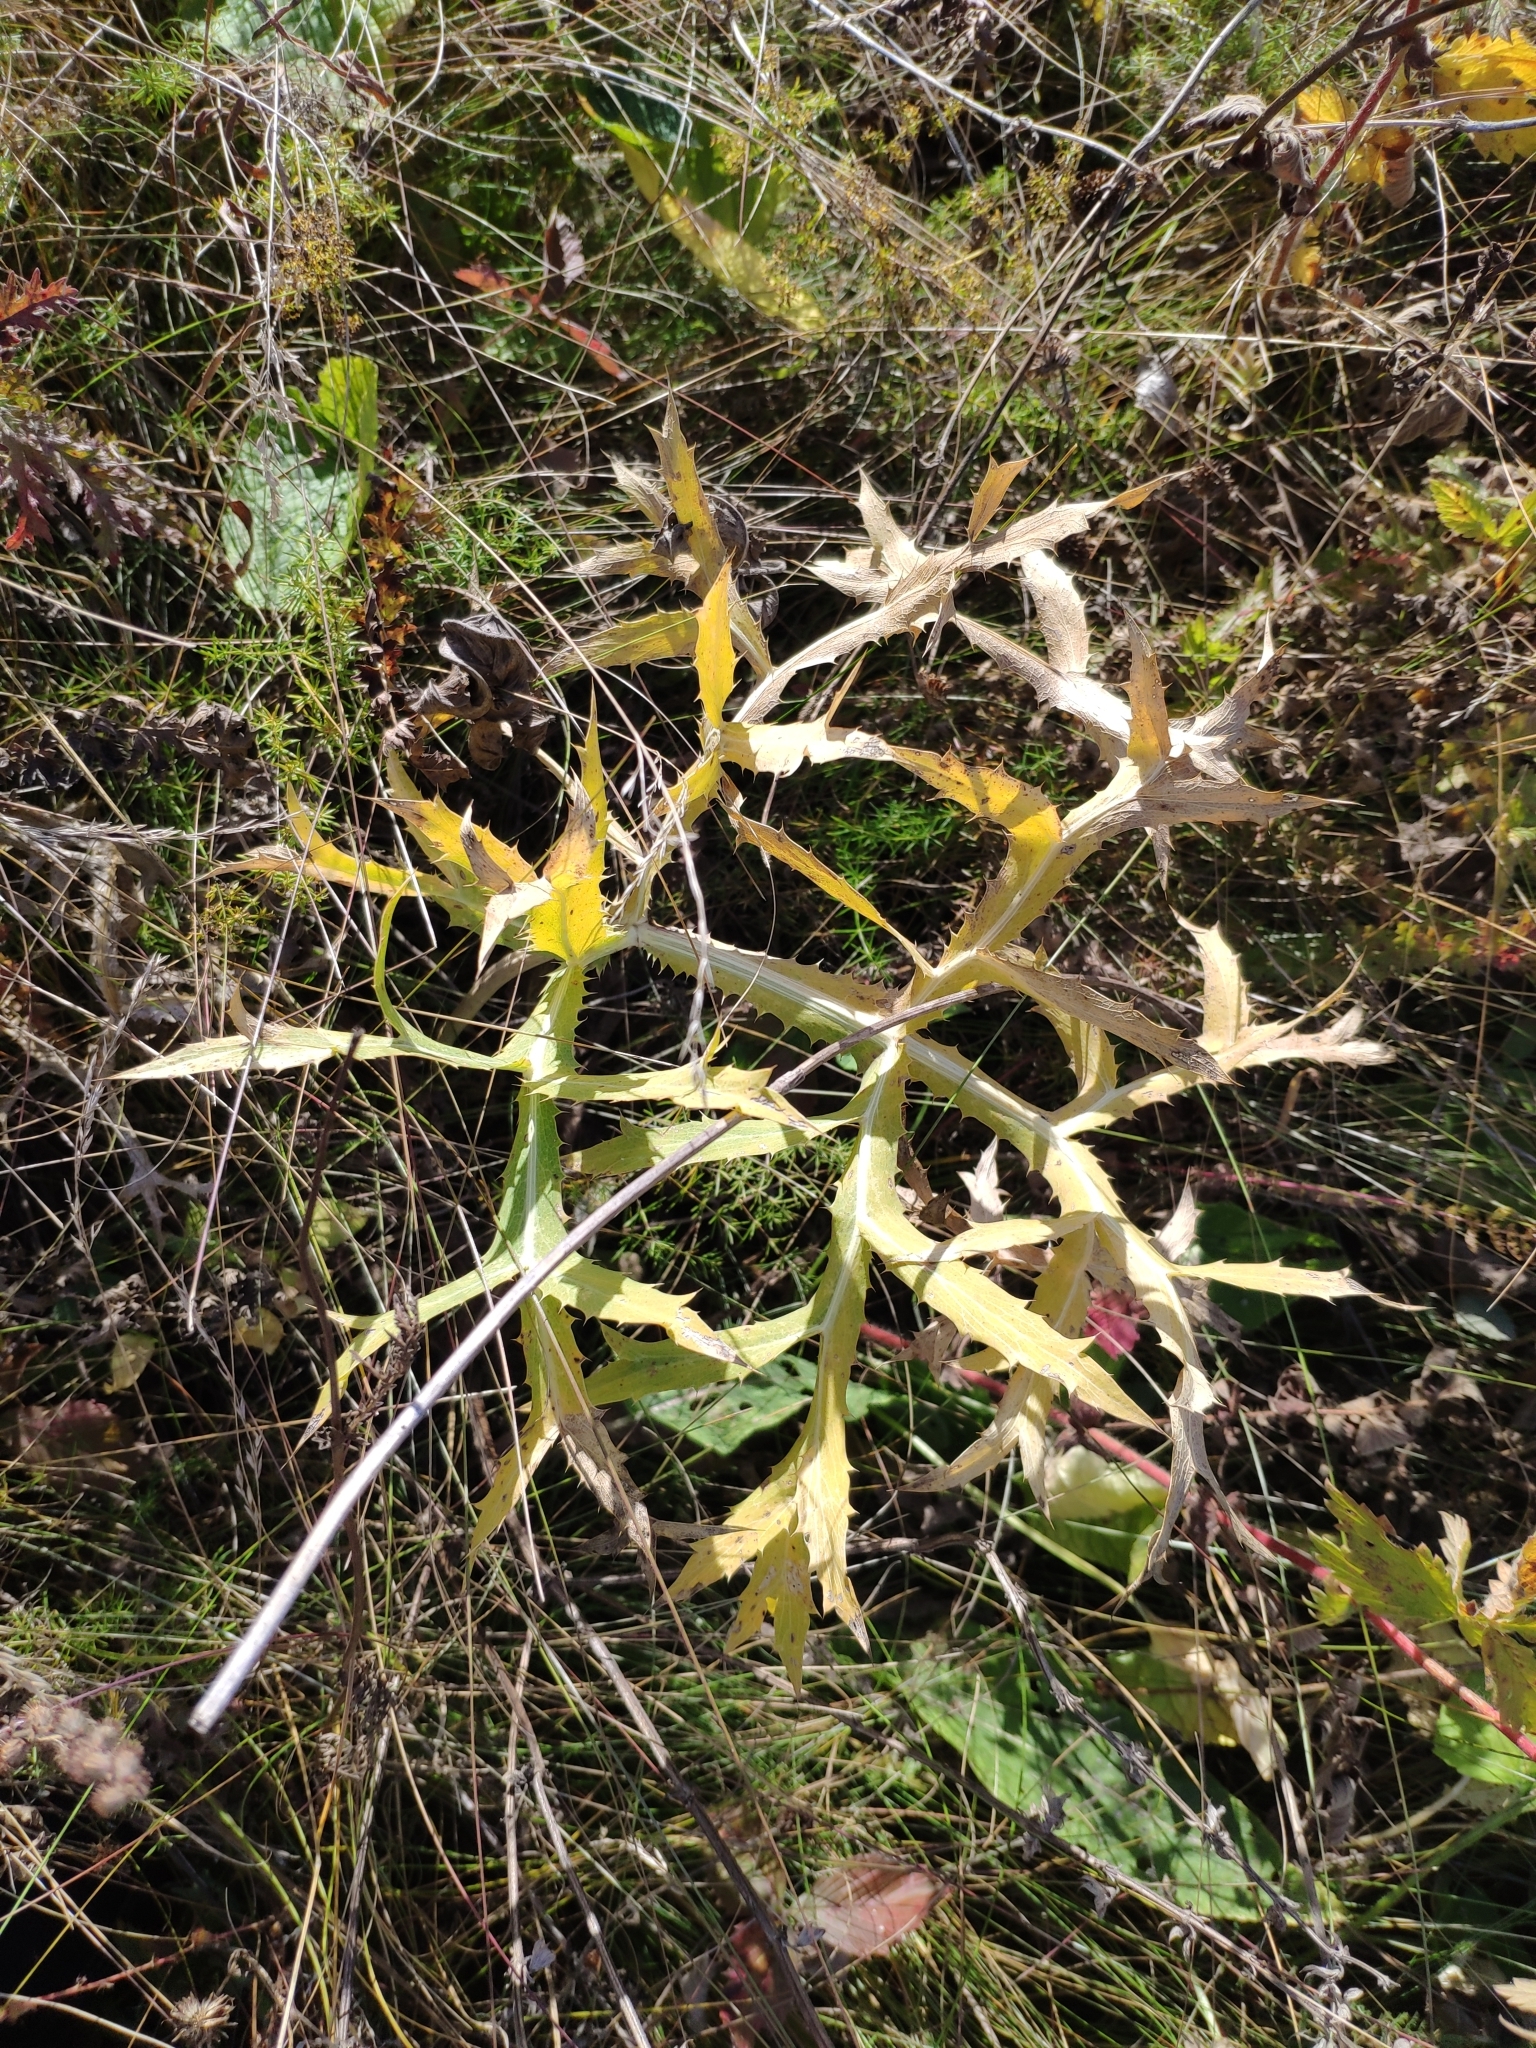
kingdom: Plantae
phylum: Tracheophyta
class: Magnoliopsida
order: Apiales
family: Apiaceae
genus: Eryngium
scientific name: Eryngium campestre
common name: Field eryngo
